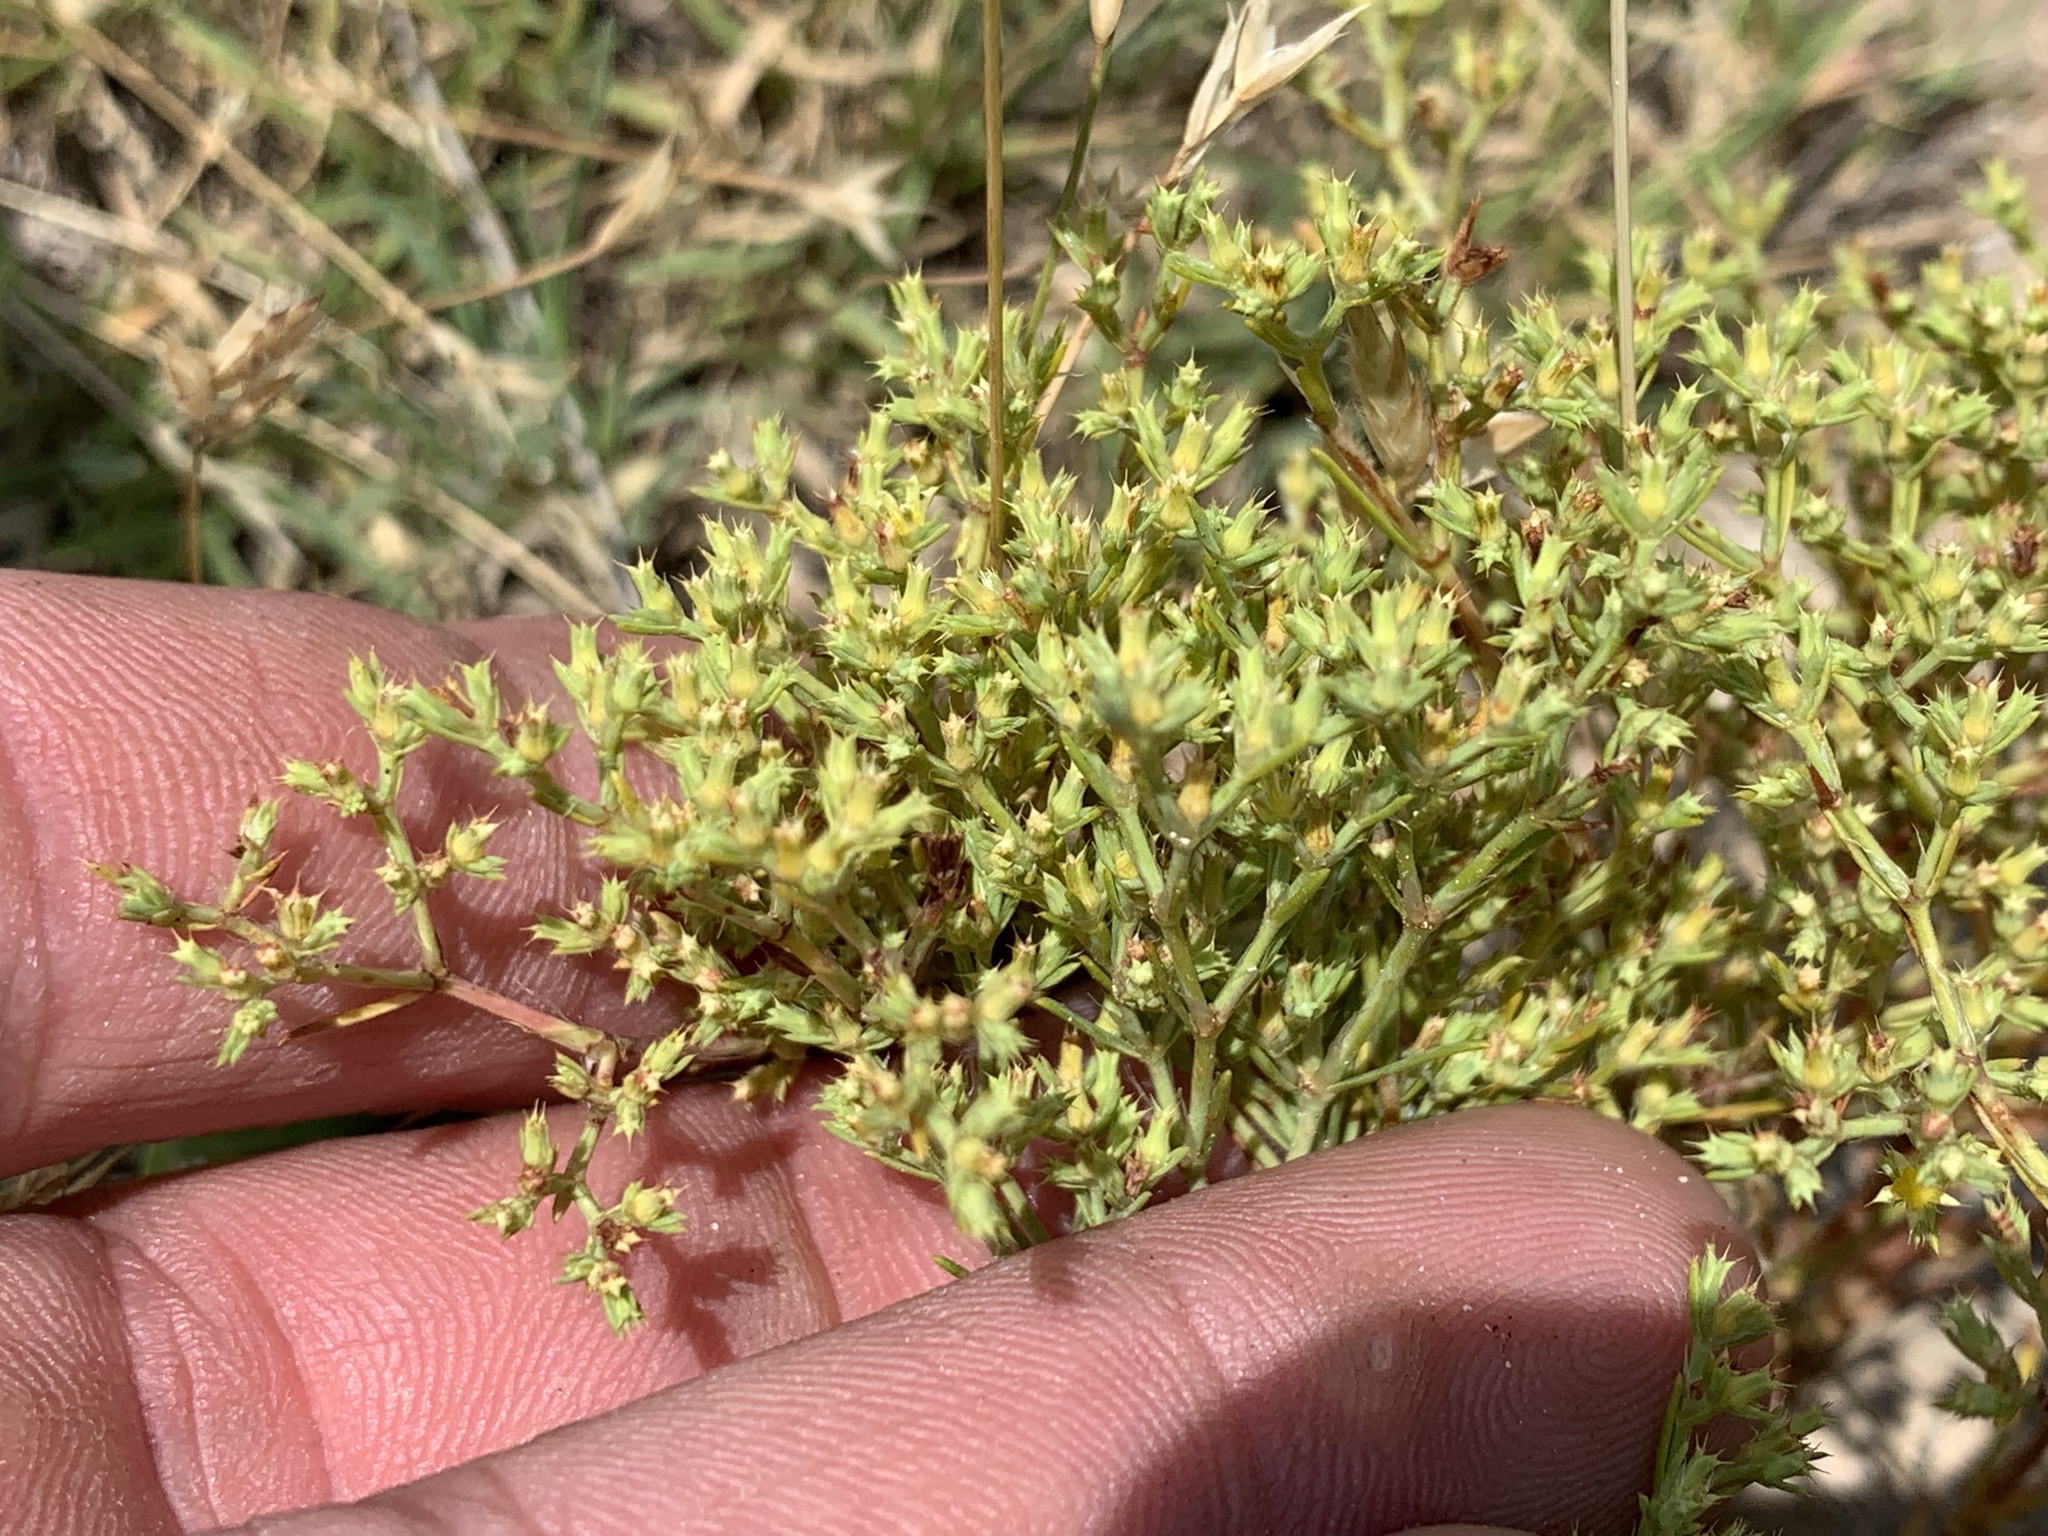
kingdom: Plantae
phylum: Tracheophyta
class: Magnoliopsida
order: Caryophyllales
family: Caryophyllaceae
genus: Paronychia
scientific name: Paronychia jamesii
